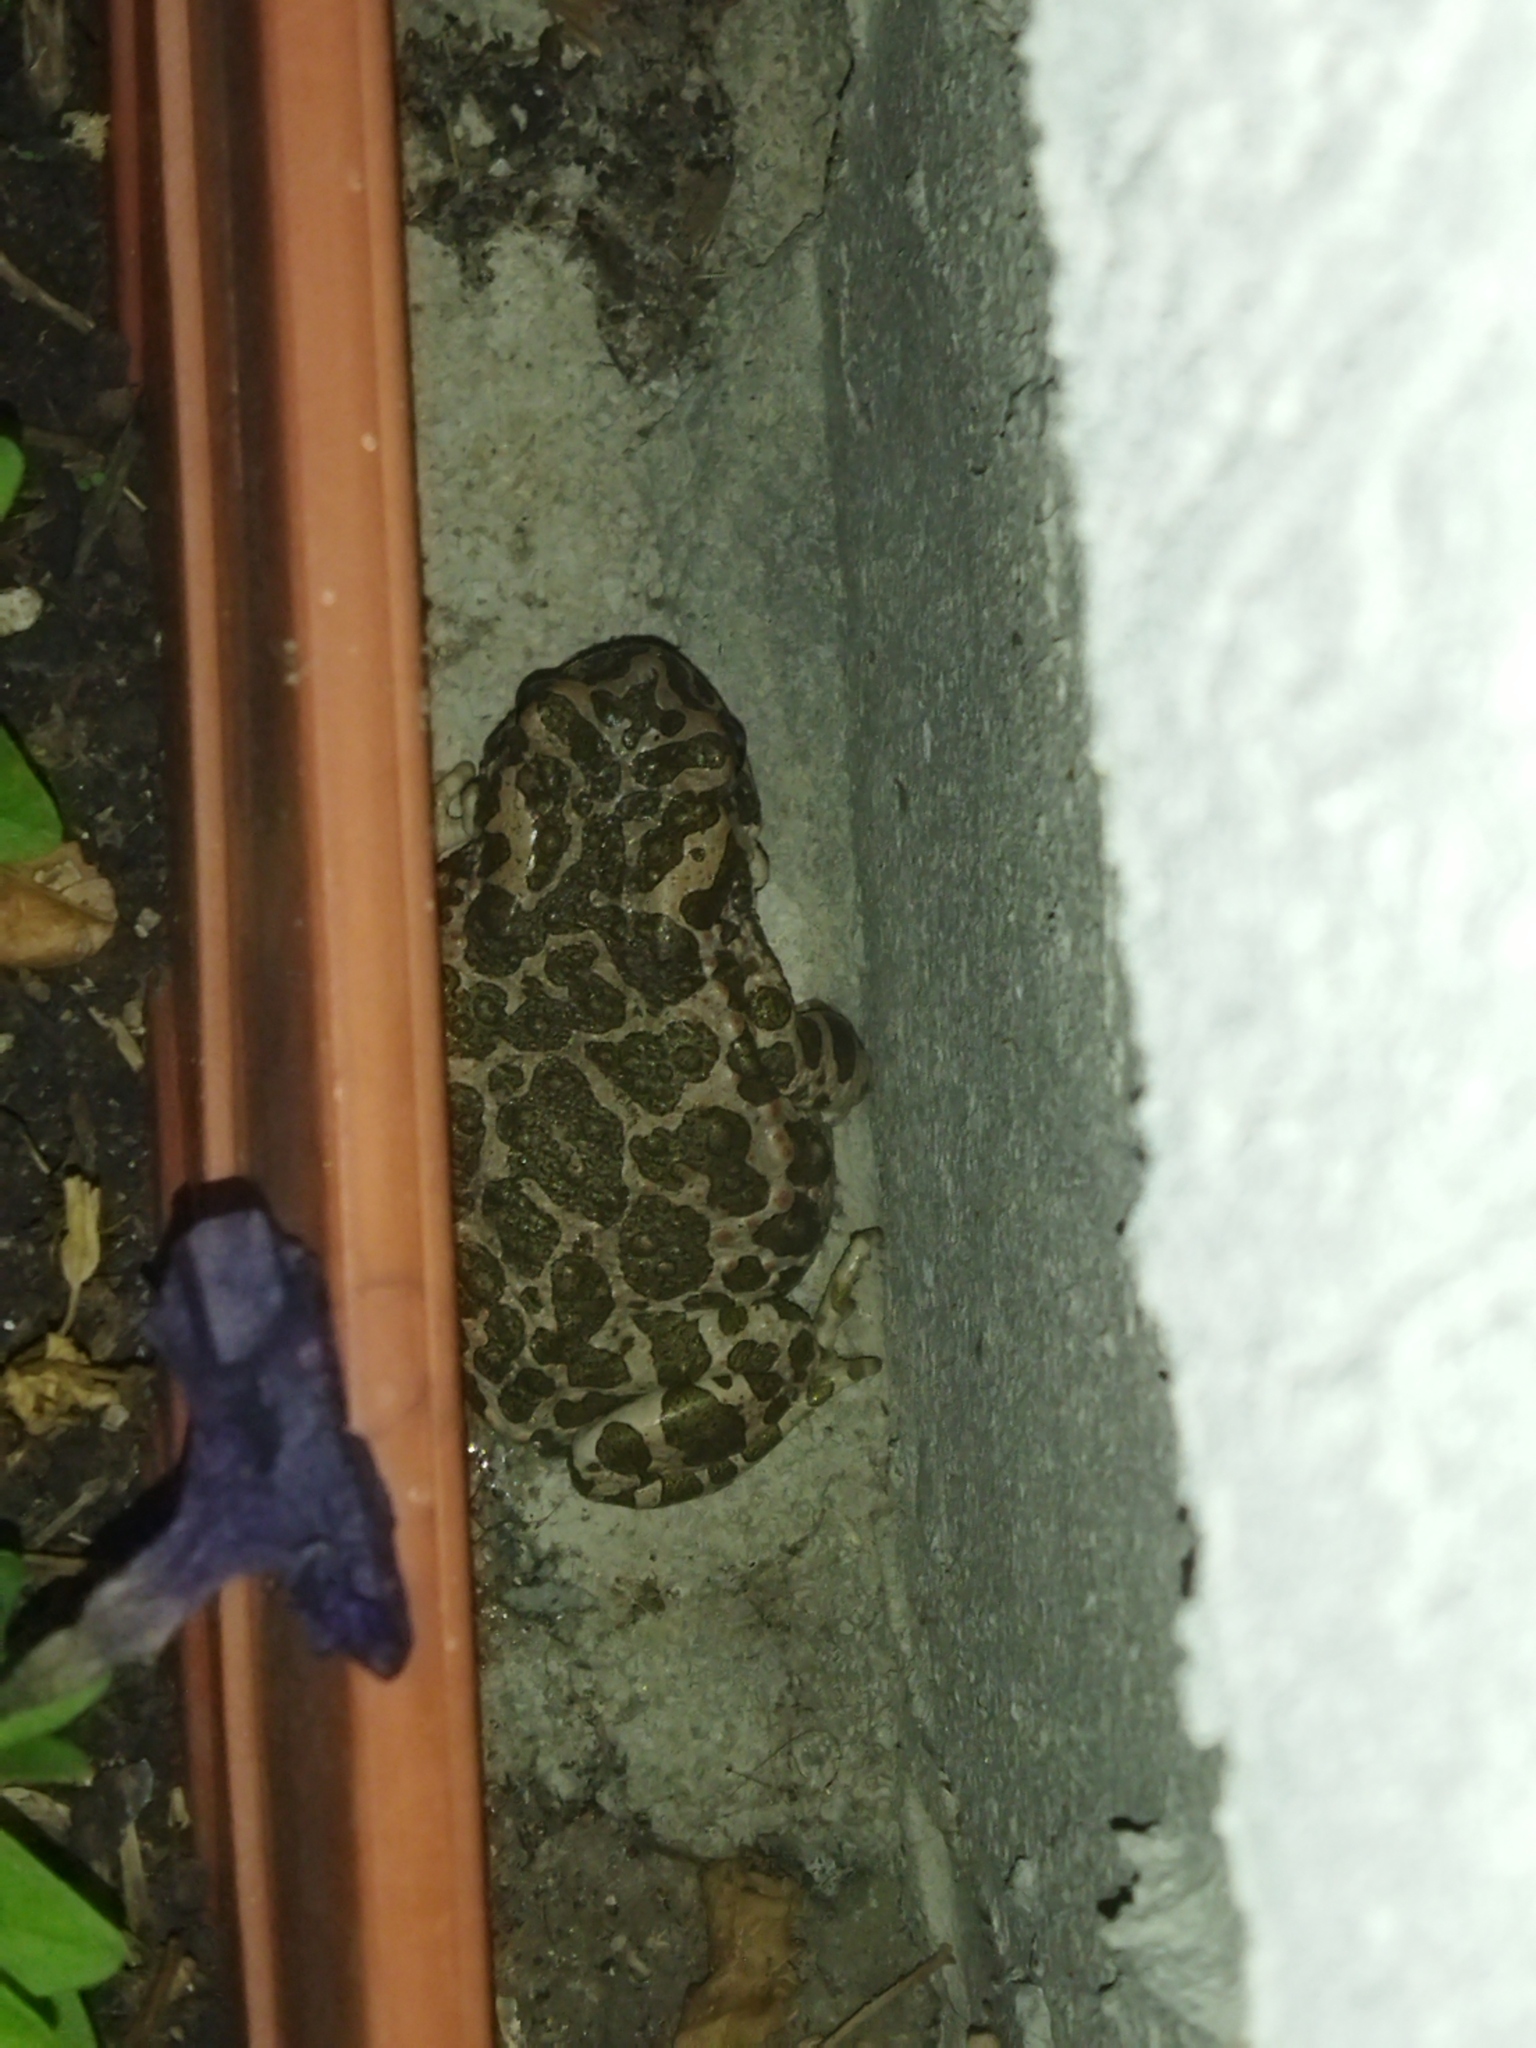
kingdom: Animalia
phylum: Chordata
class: Amphibia
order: Anura
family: Bufonidae
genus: Bufotes
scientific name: Bufotes viridis
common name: European green toad
